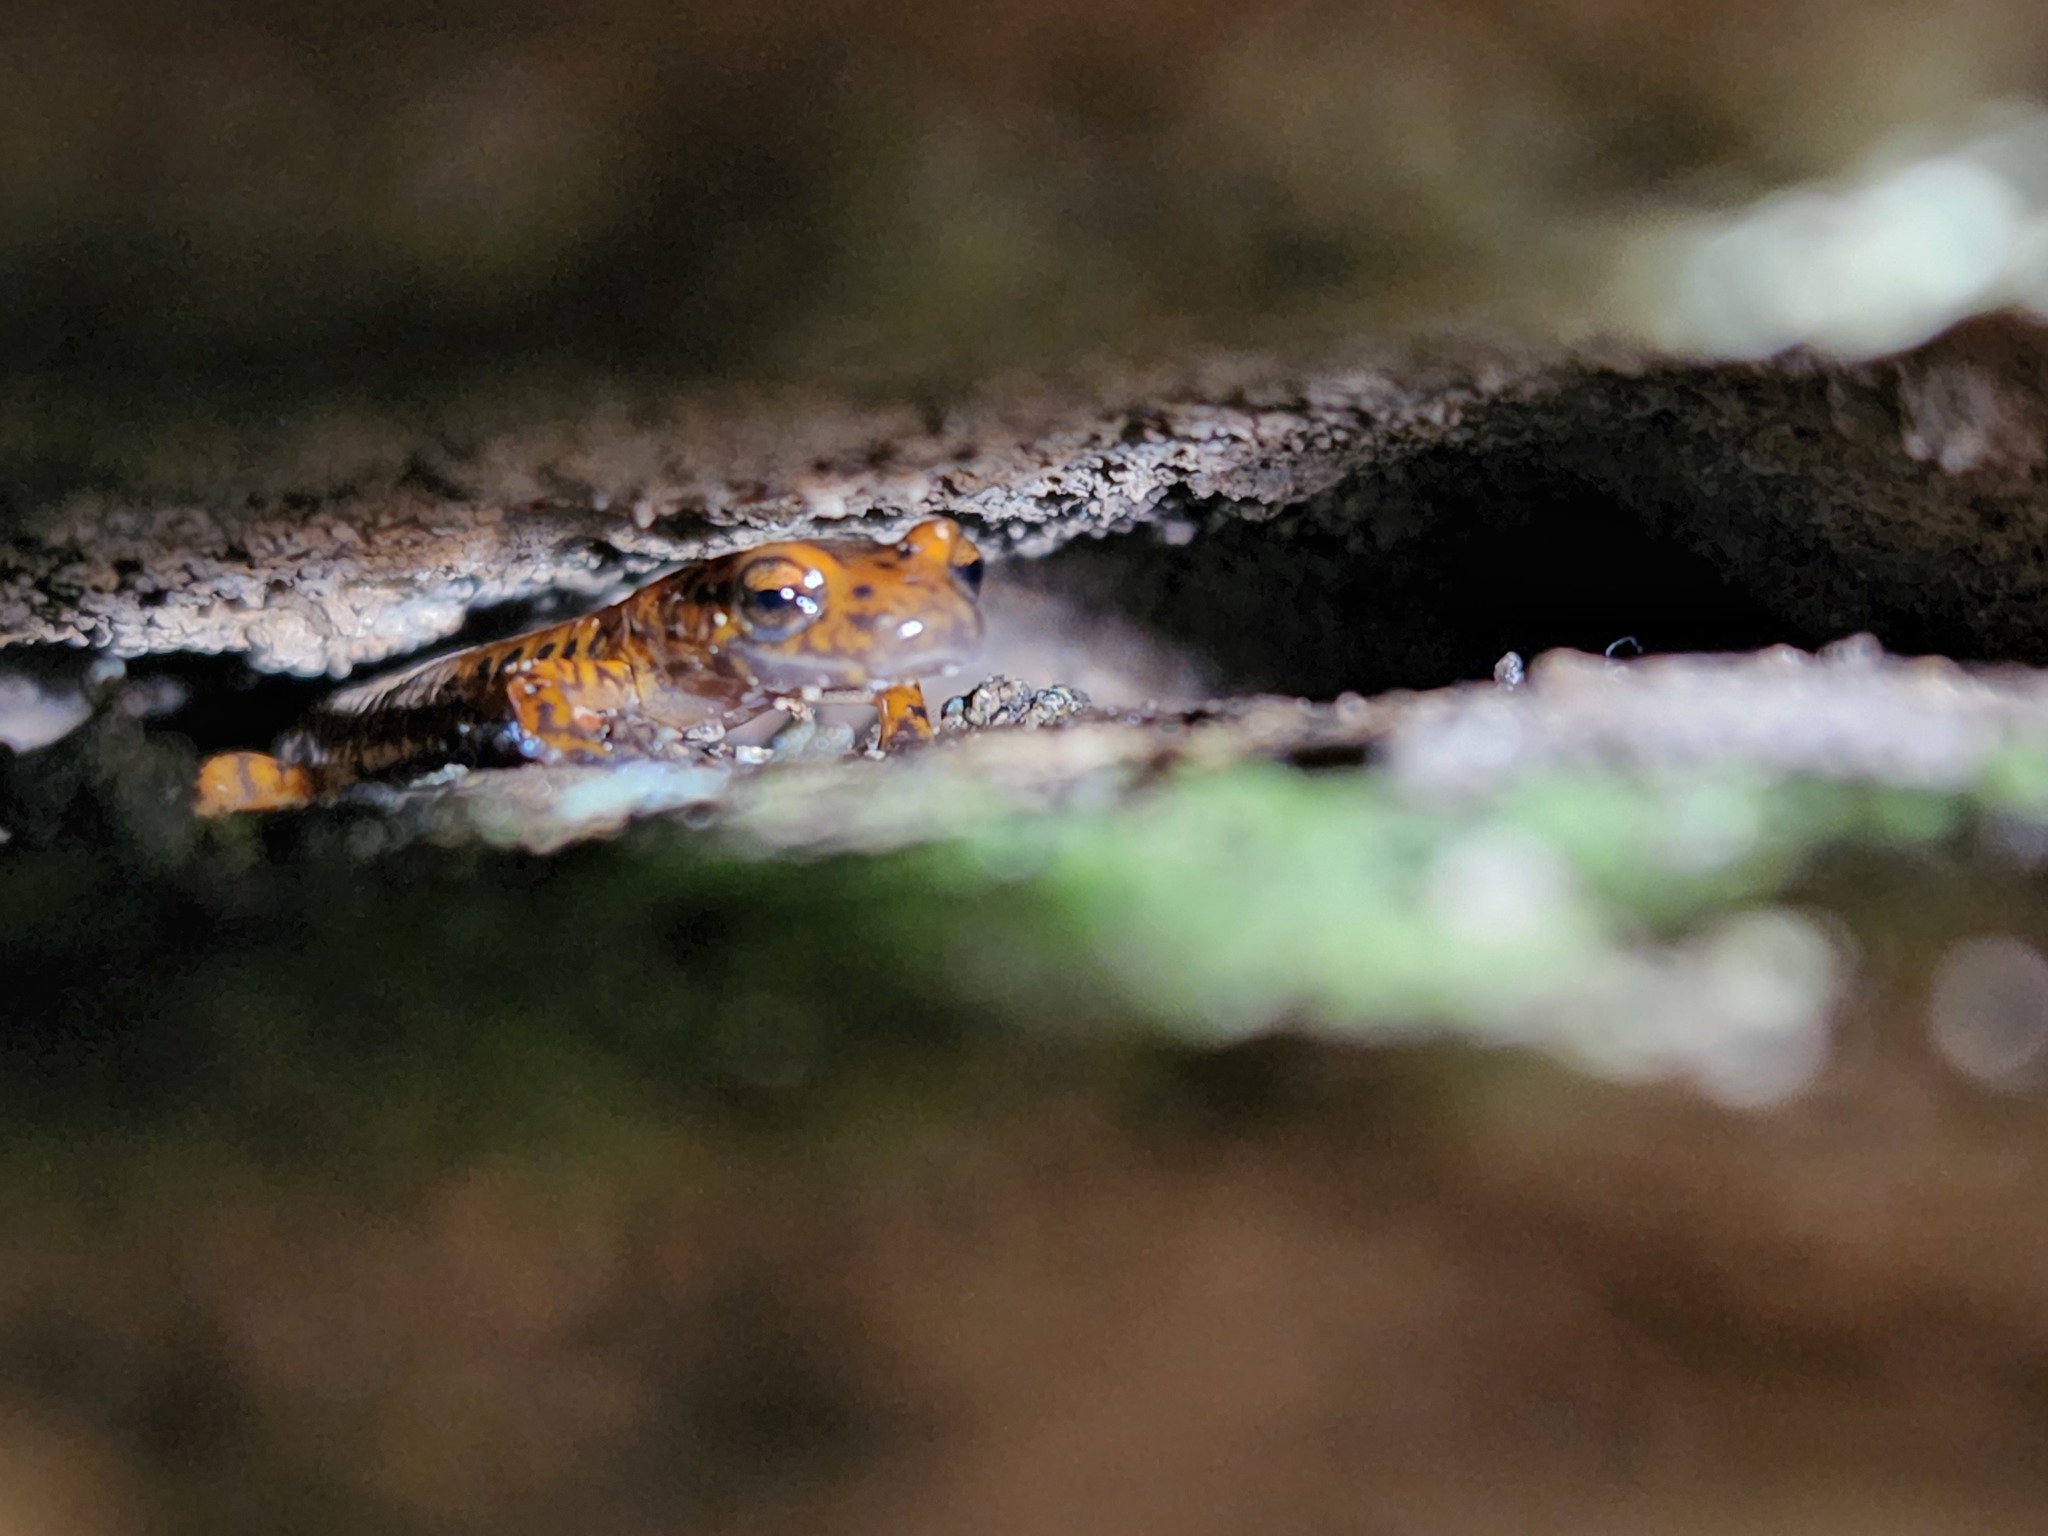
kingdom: Animalia
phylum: Chordata
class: Amphibia
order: Caudata
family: Plethodontidae
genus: Eurycea
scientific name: Eurycea lucifuga
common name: Cave salamander
